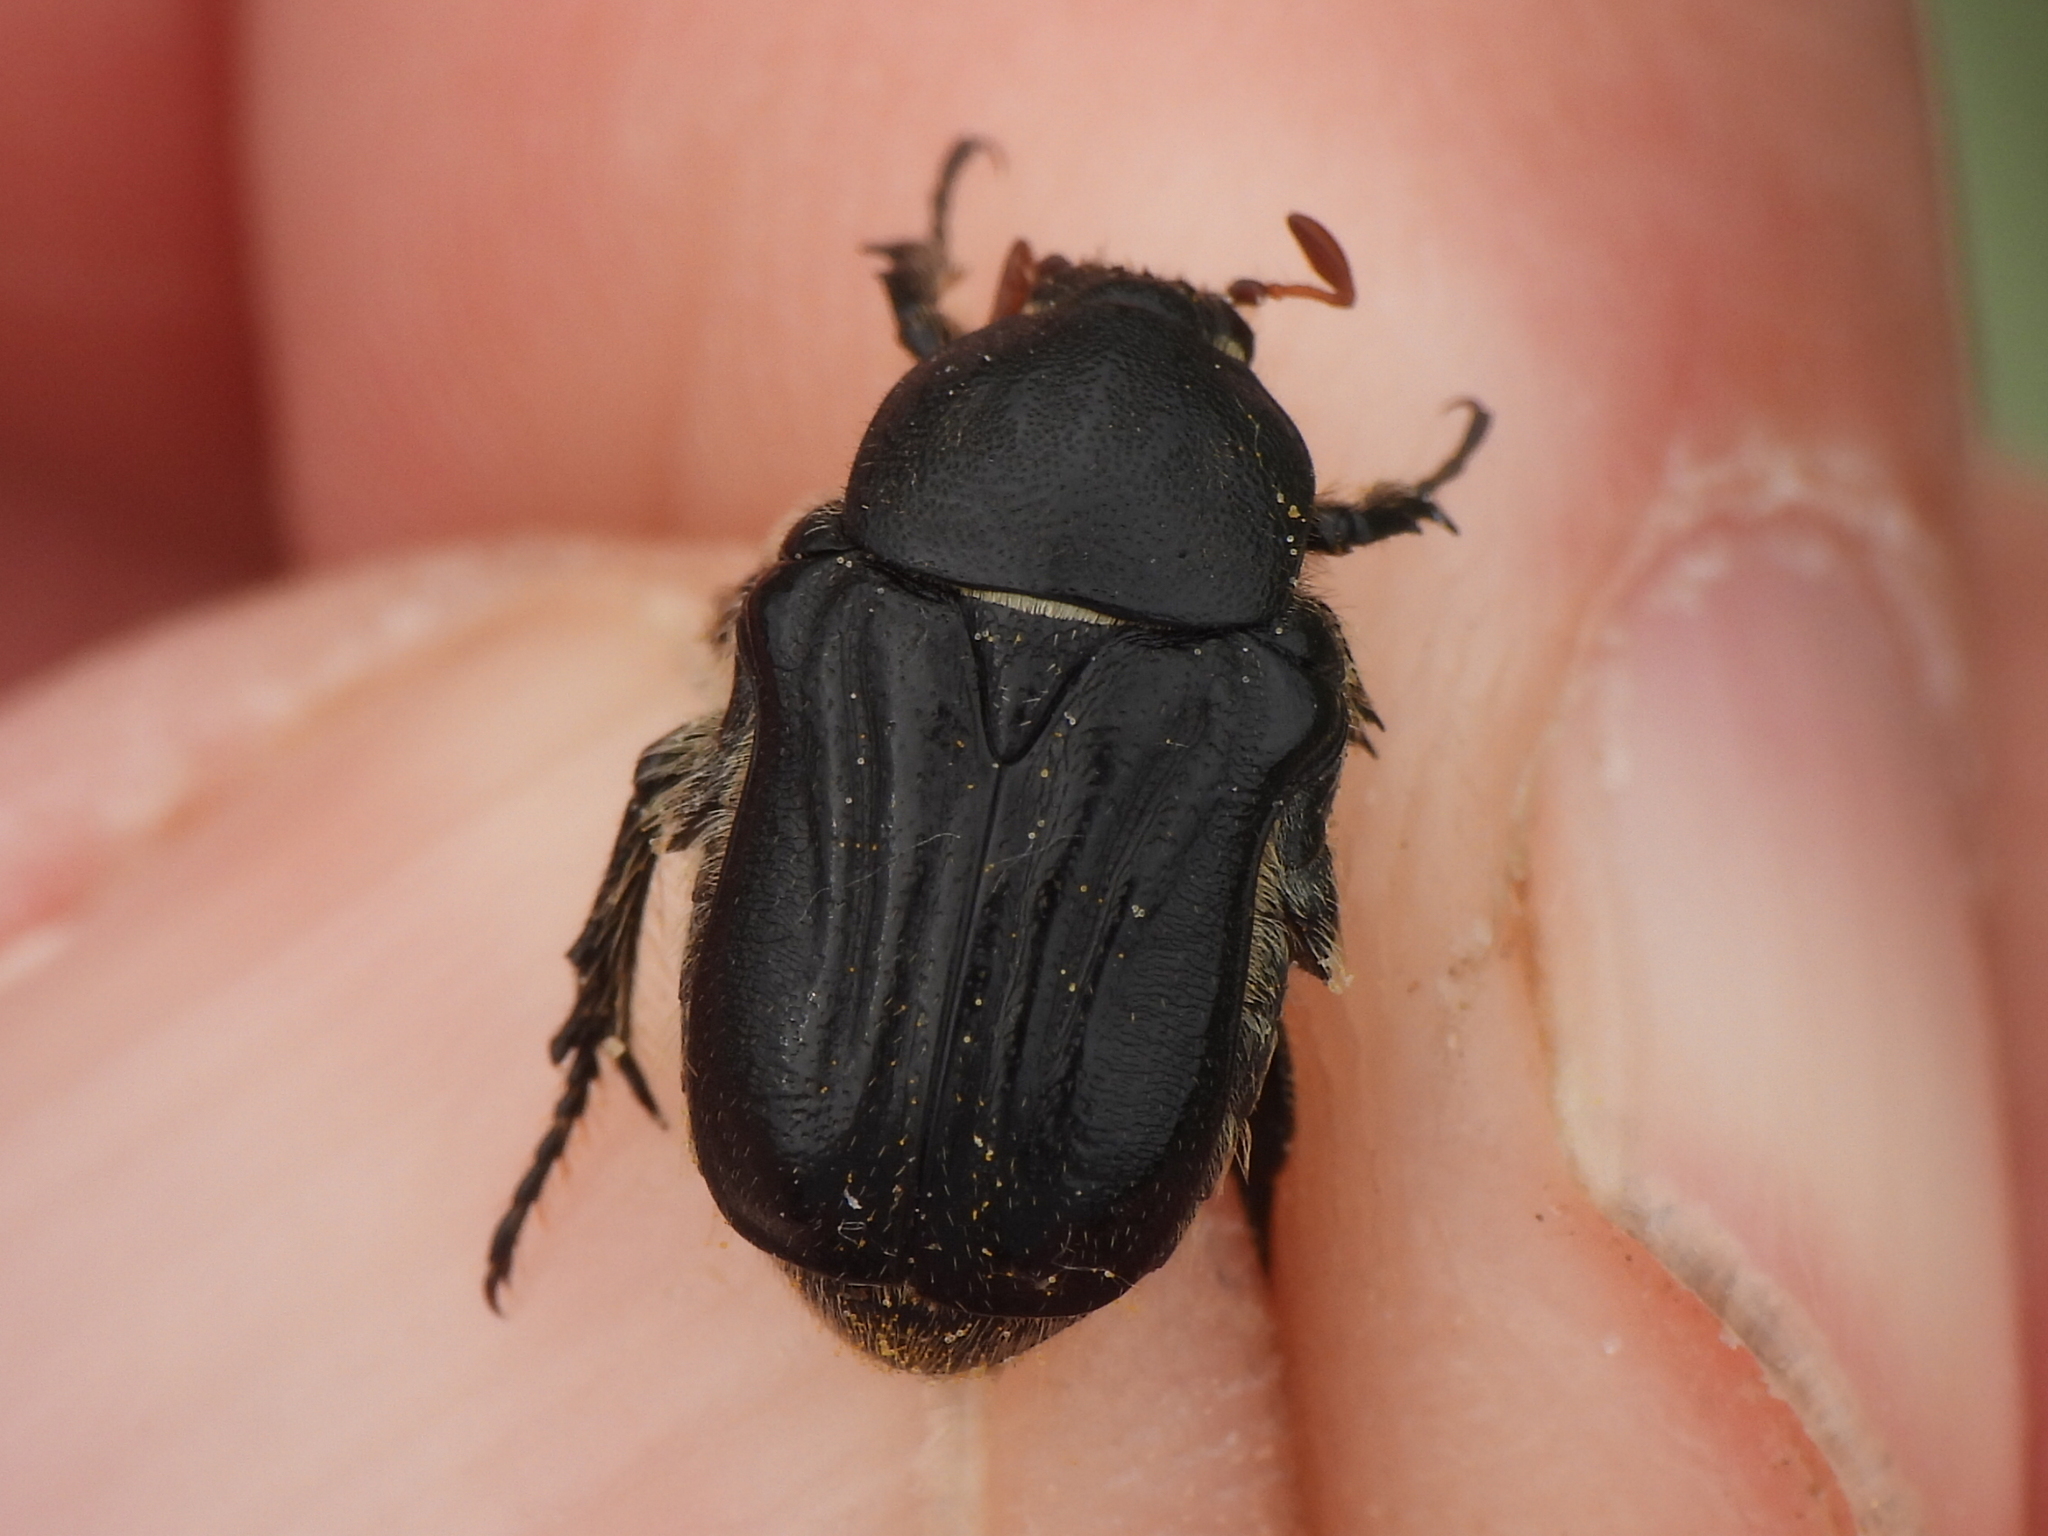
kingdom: Animalia
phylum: Arthropoda
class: Insecta
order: Coleoptera
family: Scarabaeidae
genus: Euphoria
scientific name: Euphoria kernii
